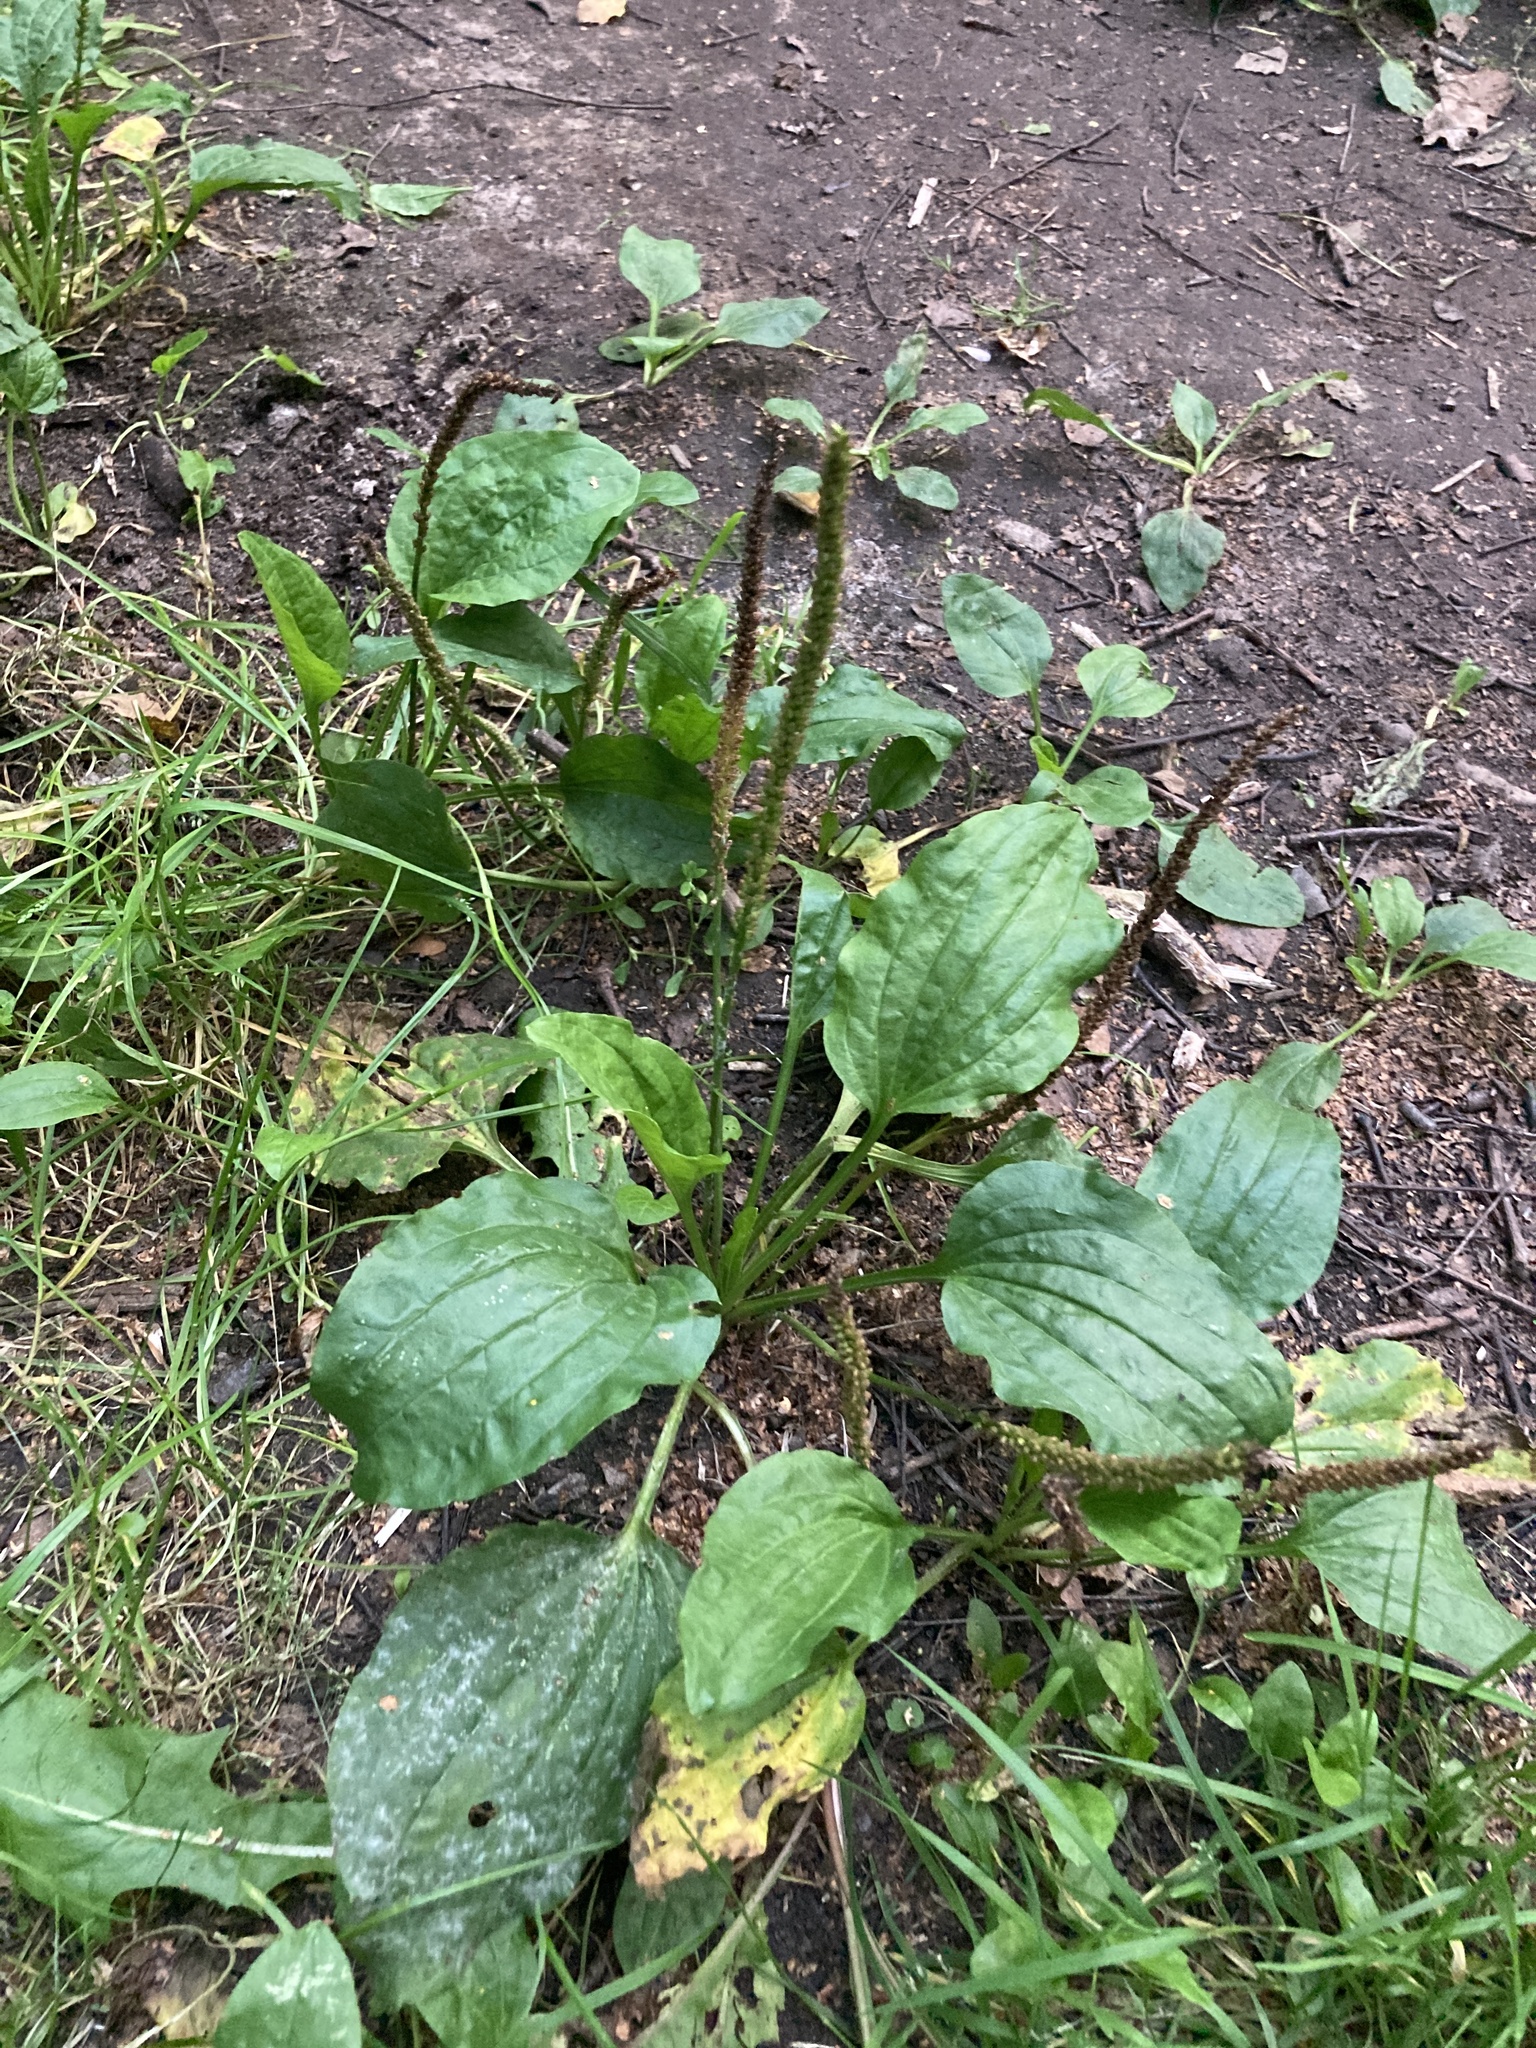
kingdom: Plantae
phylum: Tracheophyta
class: Magnoliopsida
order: Lamiales
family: Plantaginaceae
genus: Plantago
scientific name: Plantago major
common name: Common plantain
